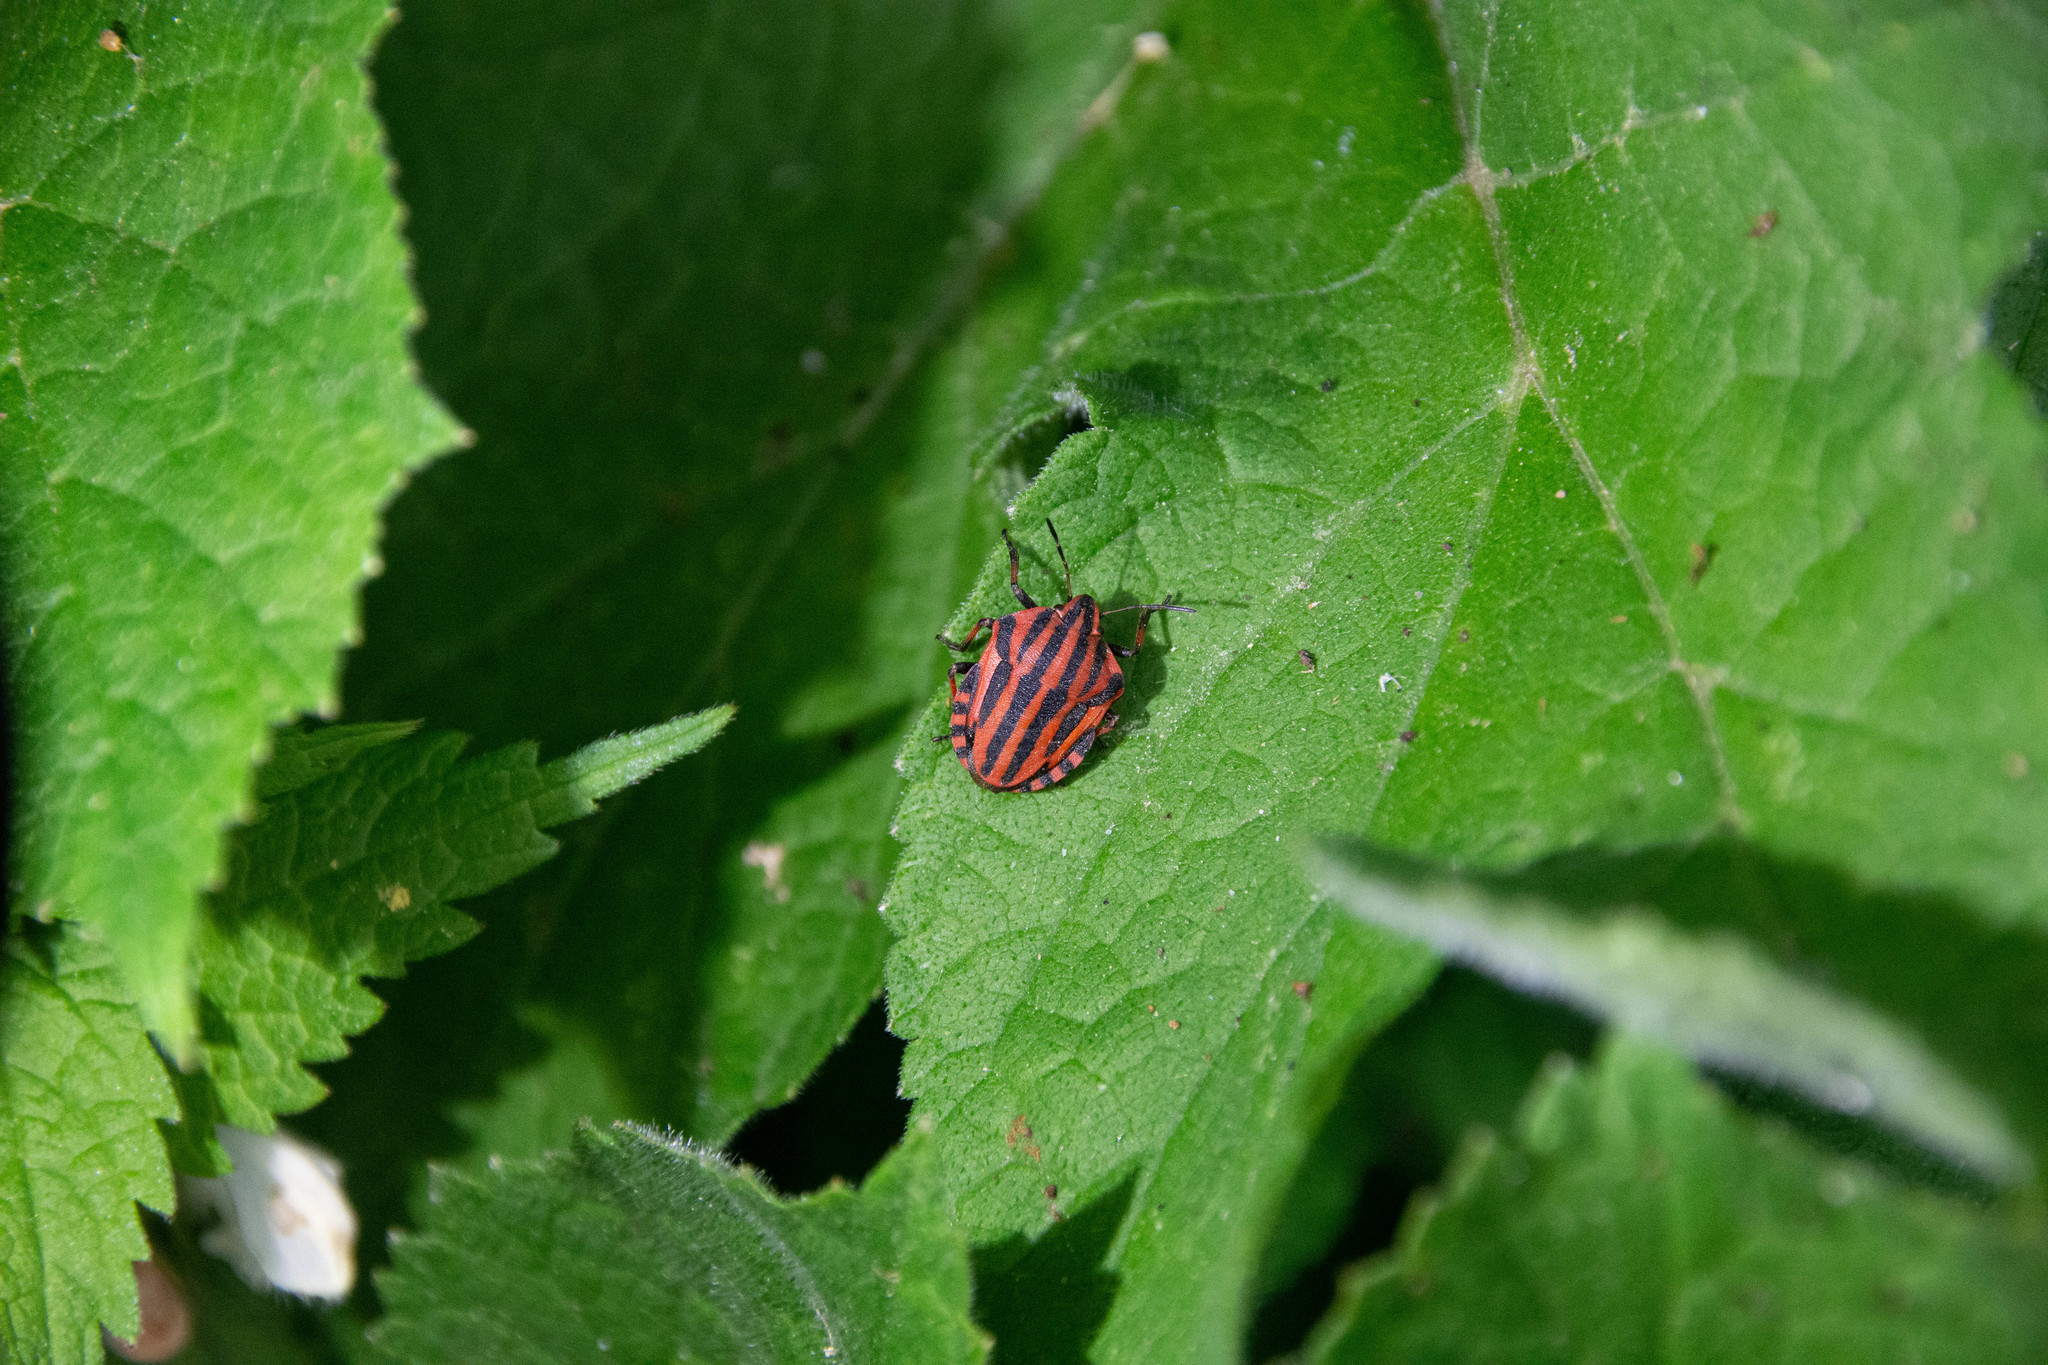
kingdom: Animalia
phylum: Arthropoda
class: Insecta
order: Hemiptera
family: Pentatomidae
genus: Graphosoma
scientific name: Graphosoma italicum
